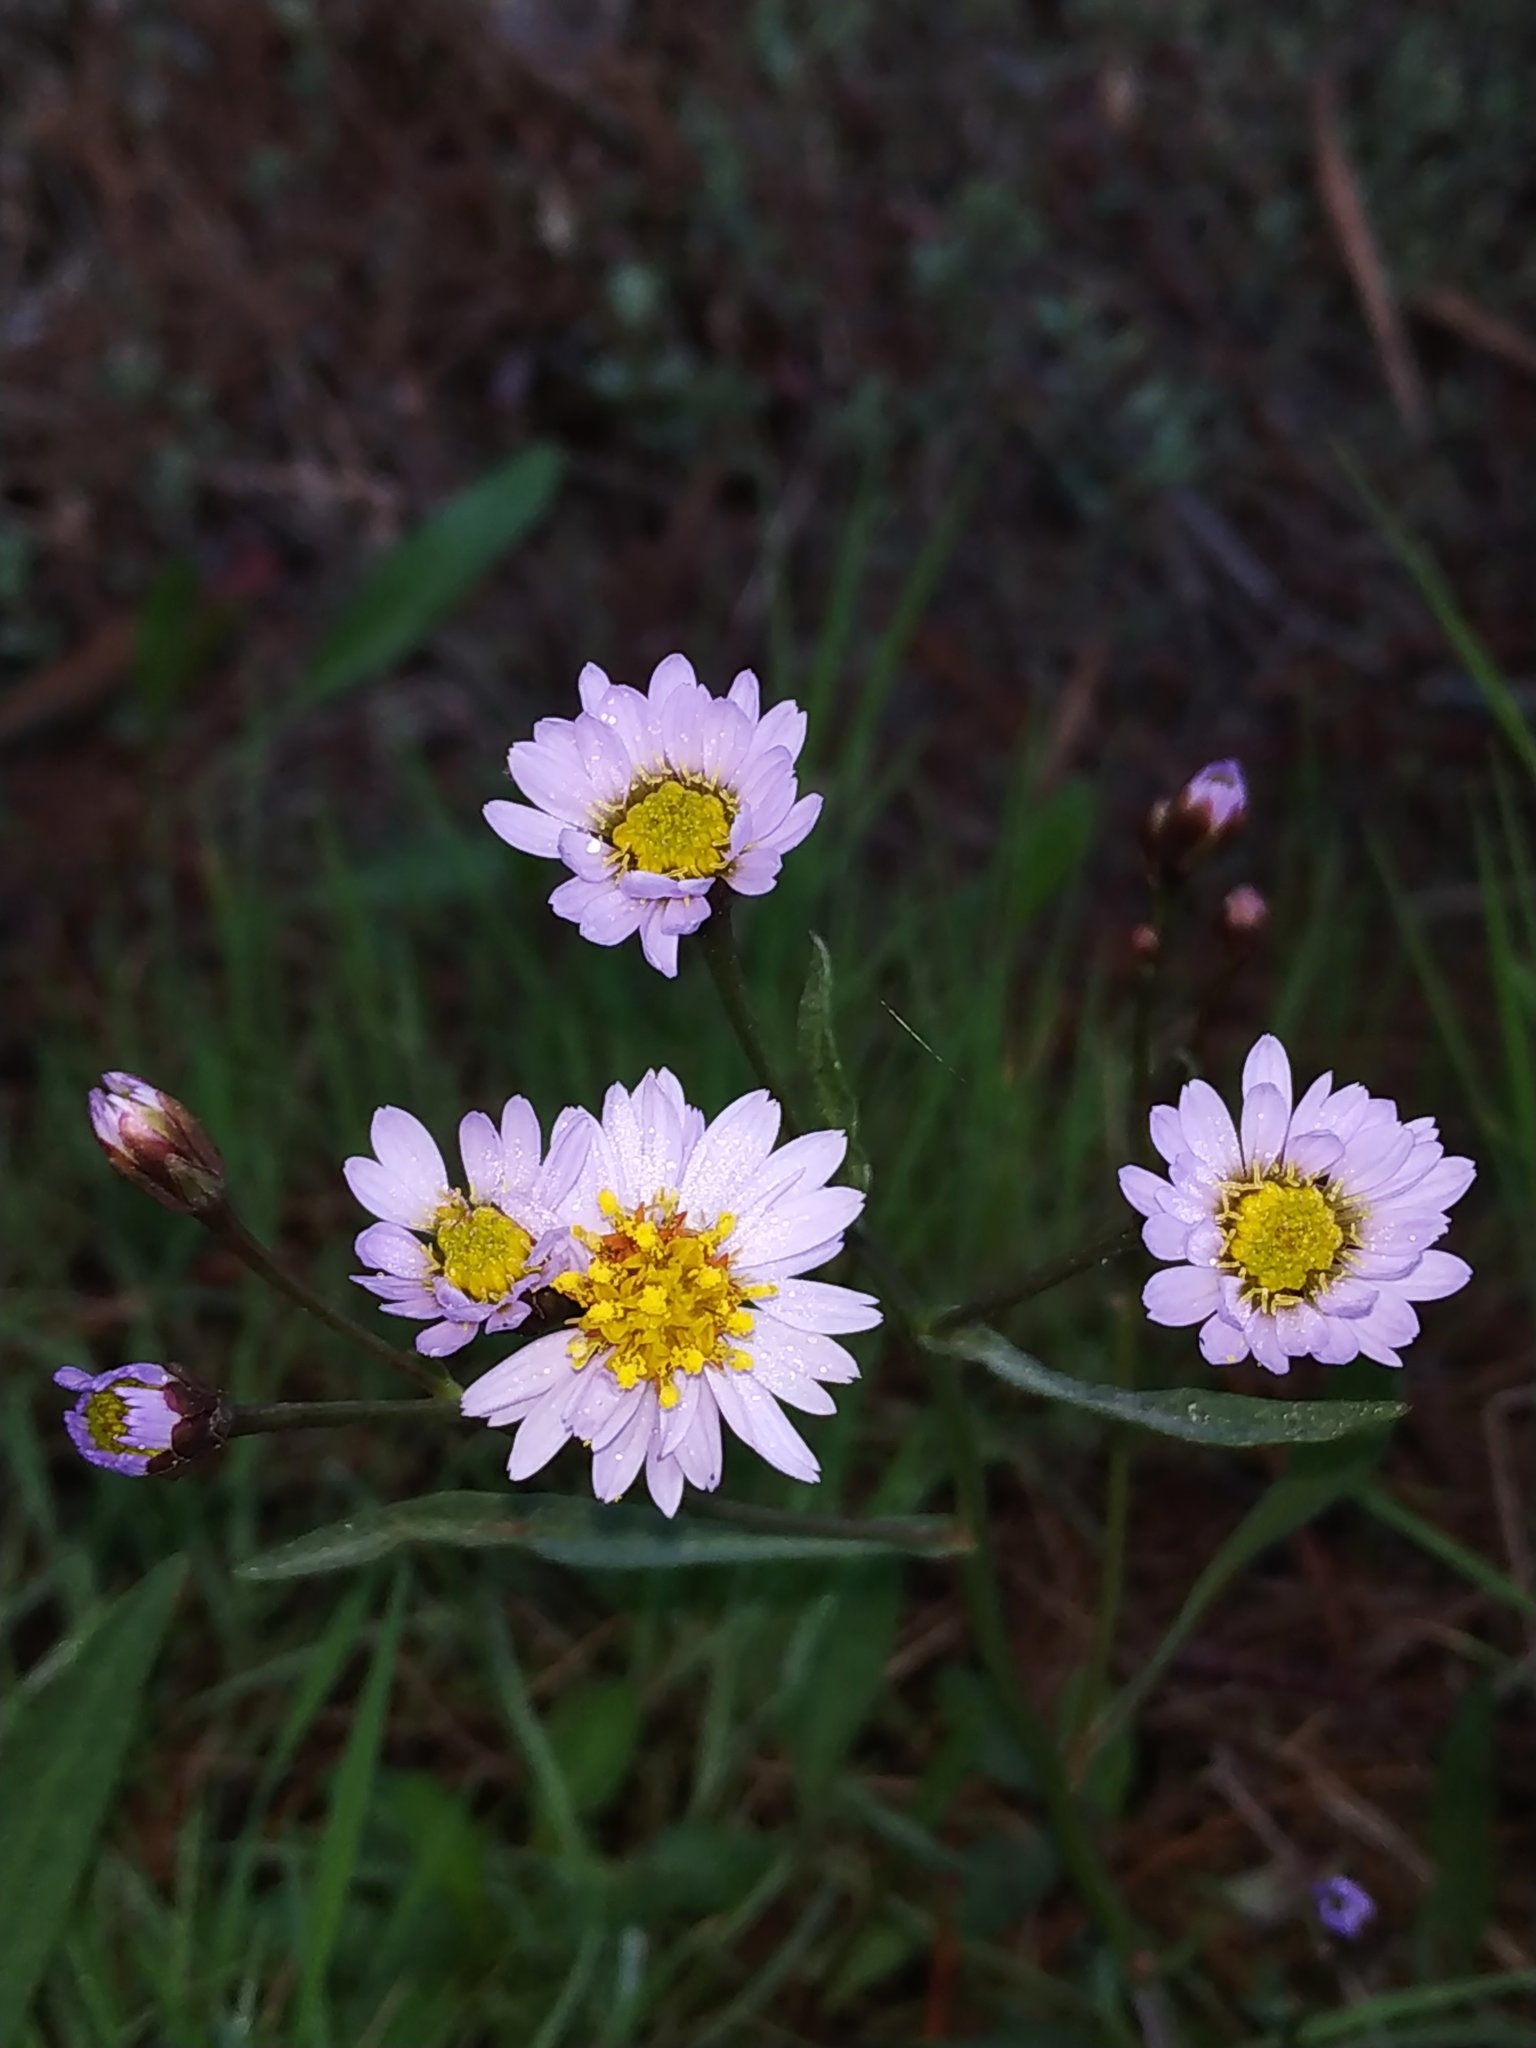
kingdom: Plantae
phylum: Tracheophyta
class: Magnoliopsida
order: Asterales
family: Asteraceae
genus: Tripolium
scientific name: Tripolium pannonicum
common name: Sea aster
